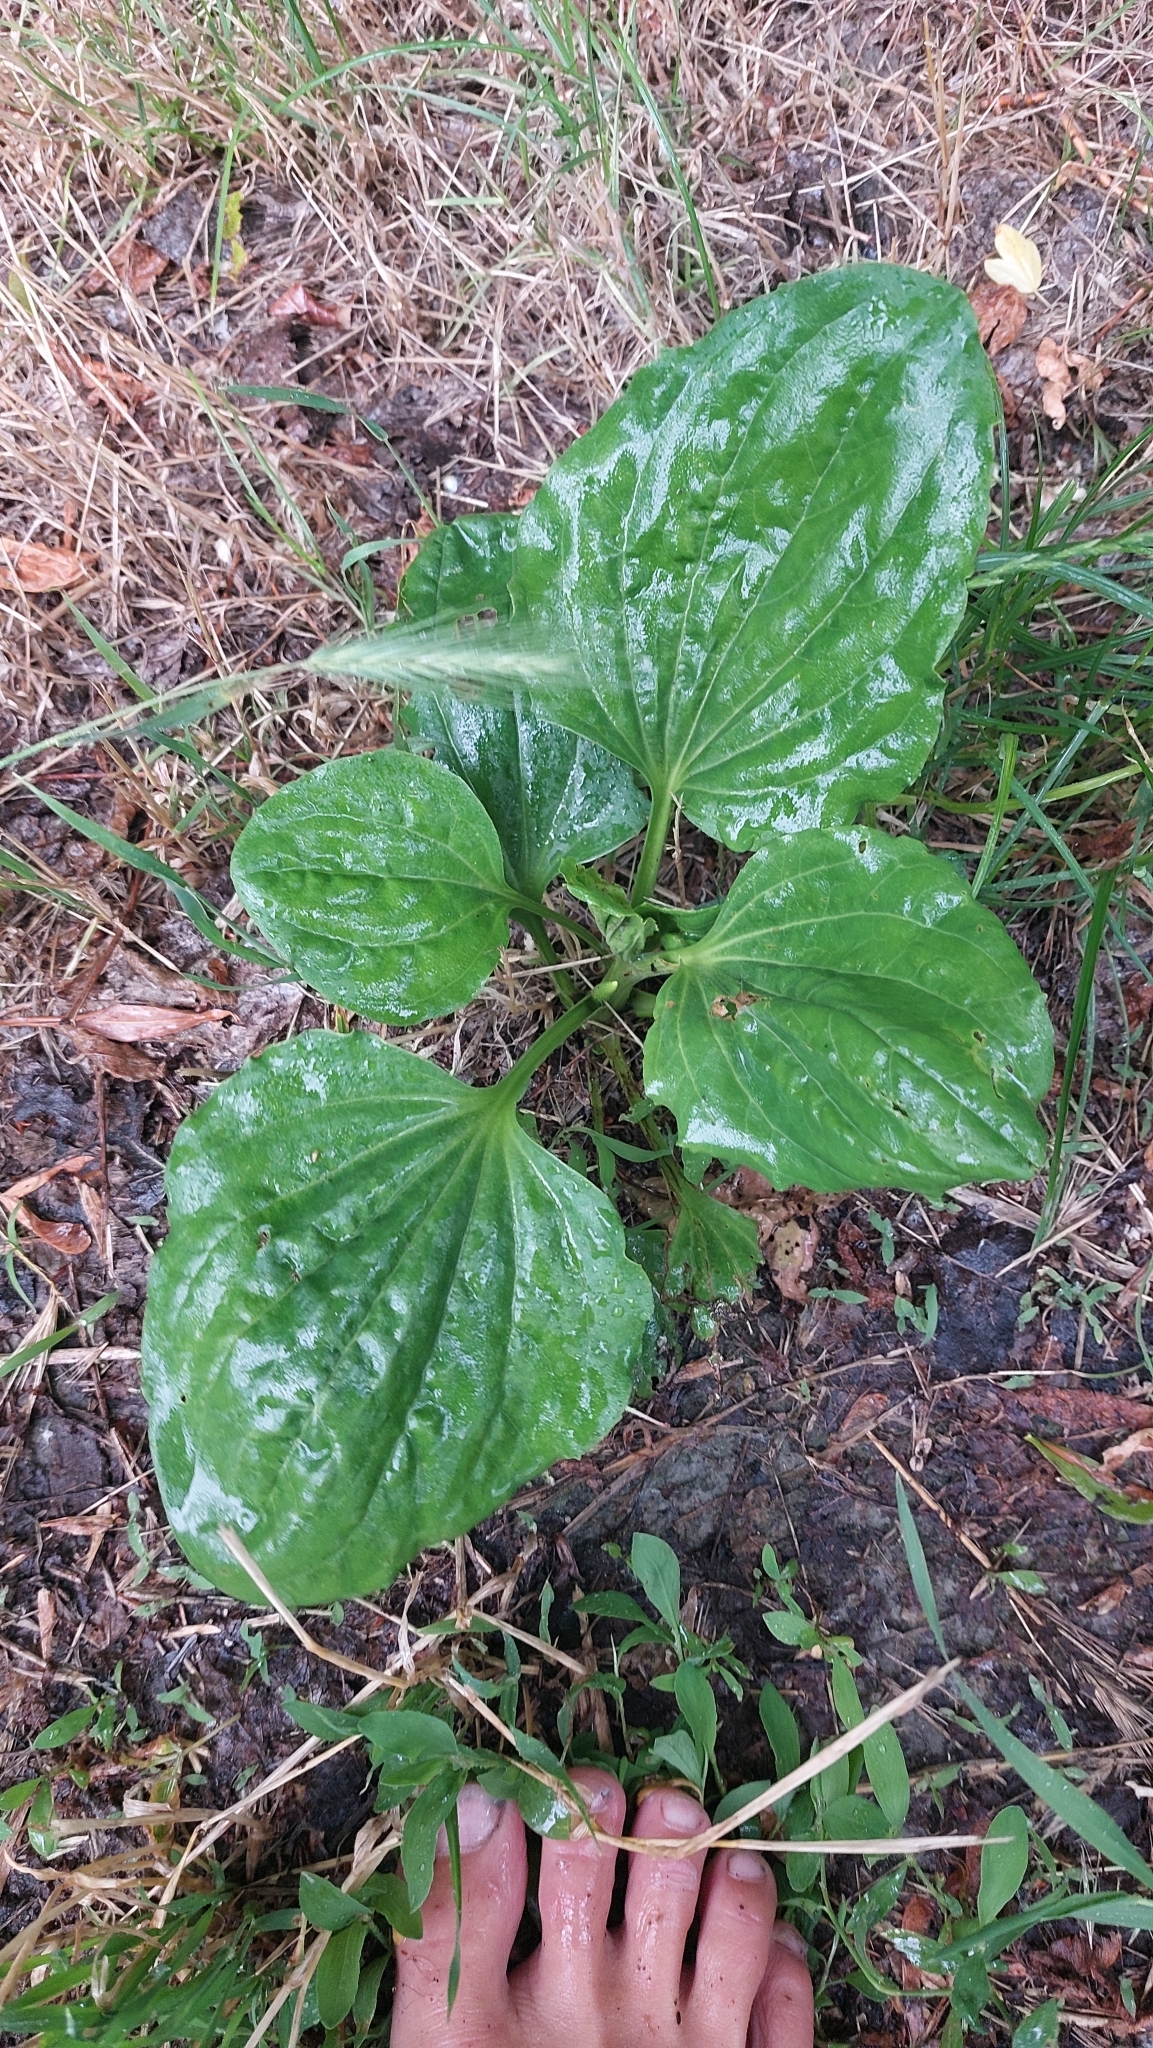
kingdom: Plantae
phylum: Tracheophyta
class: Magnoliopsida
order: Lamiales
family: Plantaginaceae
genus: Plantago
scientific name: Plantago major
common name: Common plantain
